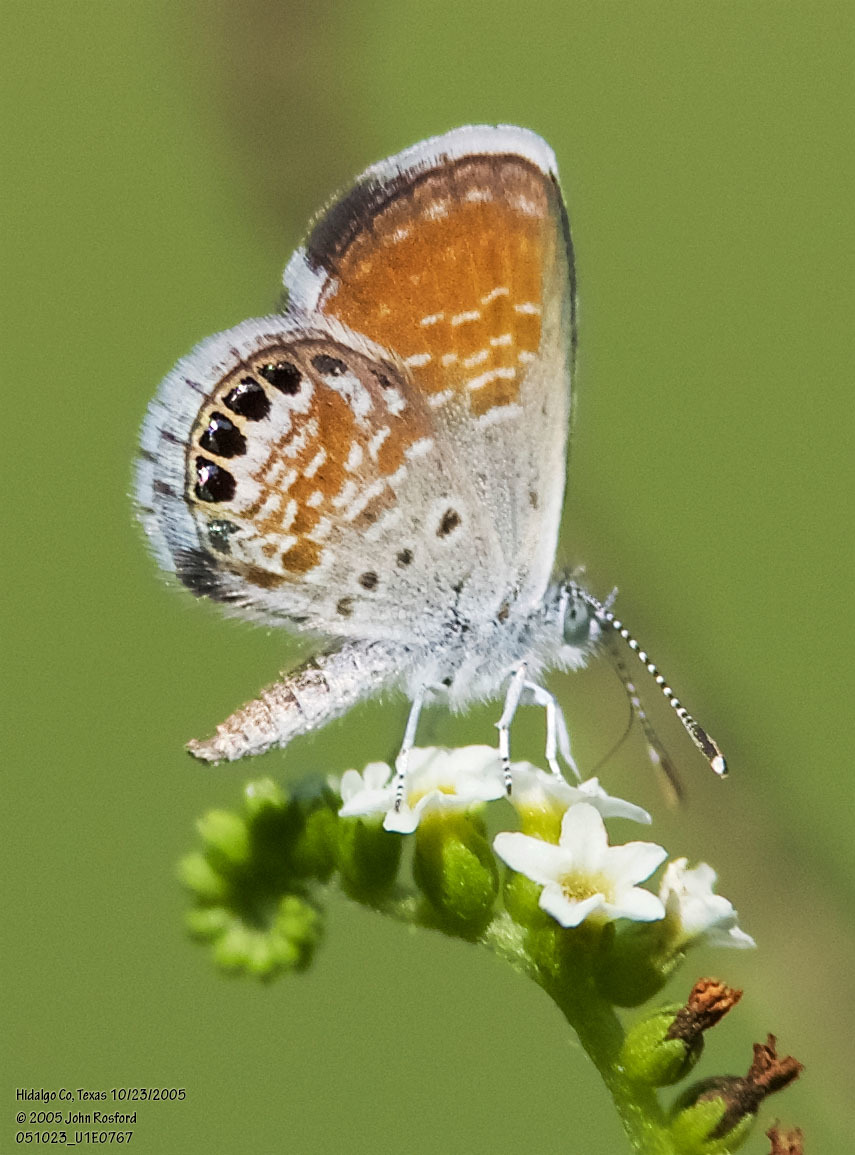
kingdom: Animalia
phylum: Arthropoda
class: Insecta
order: Lepidoptera
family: Lycaenidae
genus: Brephidium
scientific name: Brephidium exilis
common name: Pygmy blue
